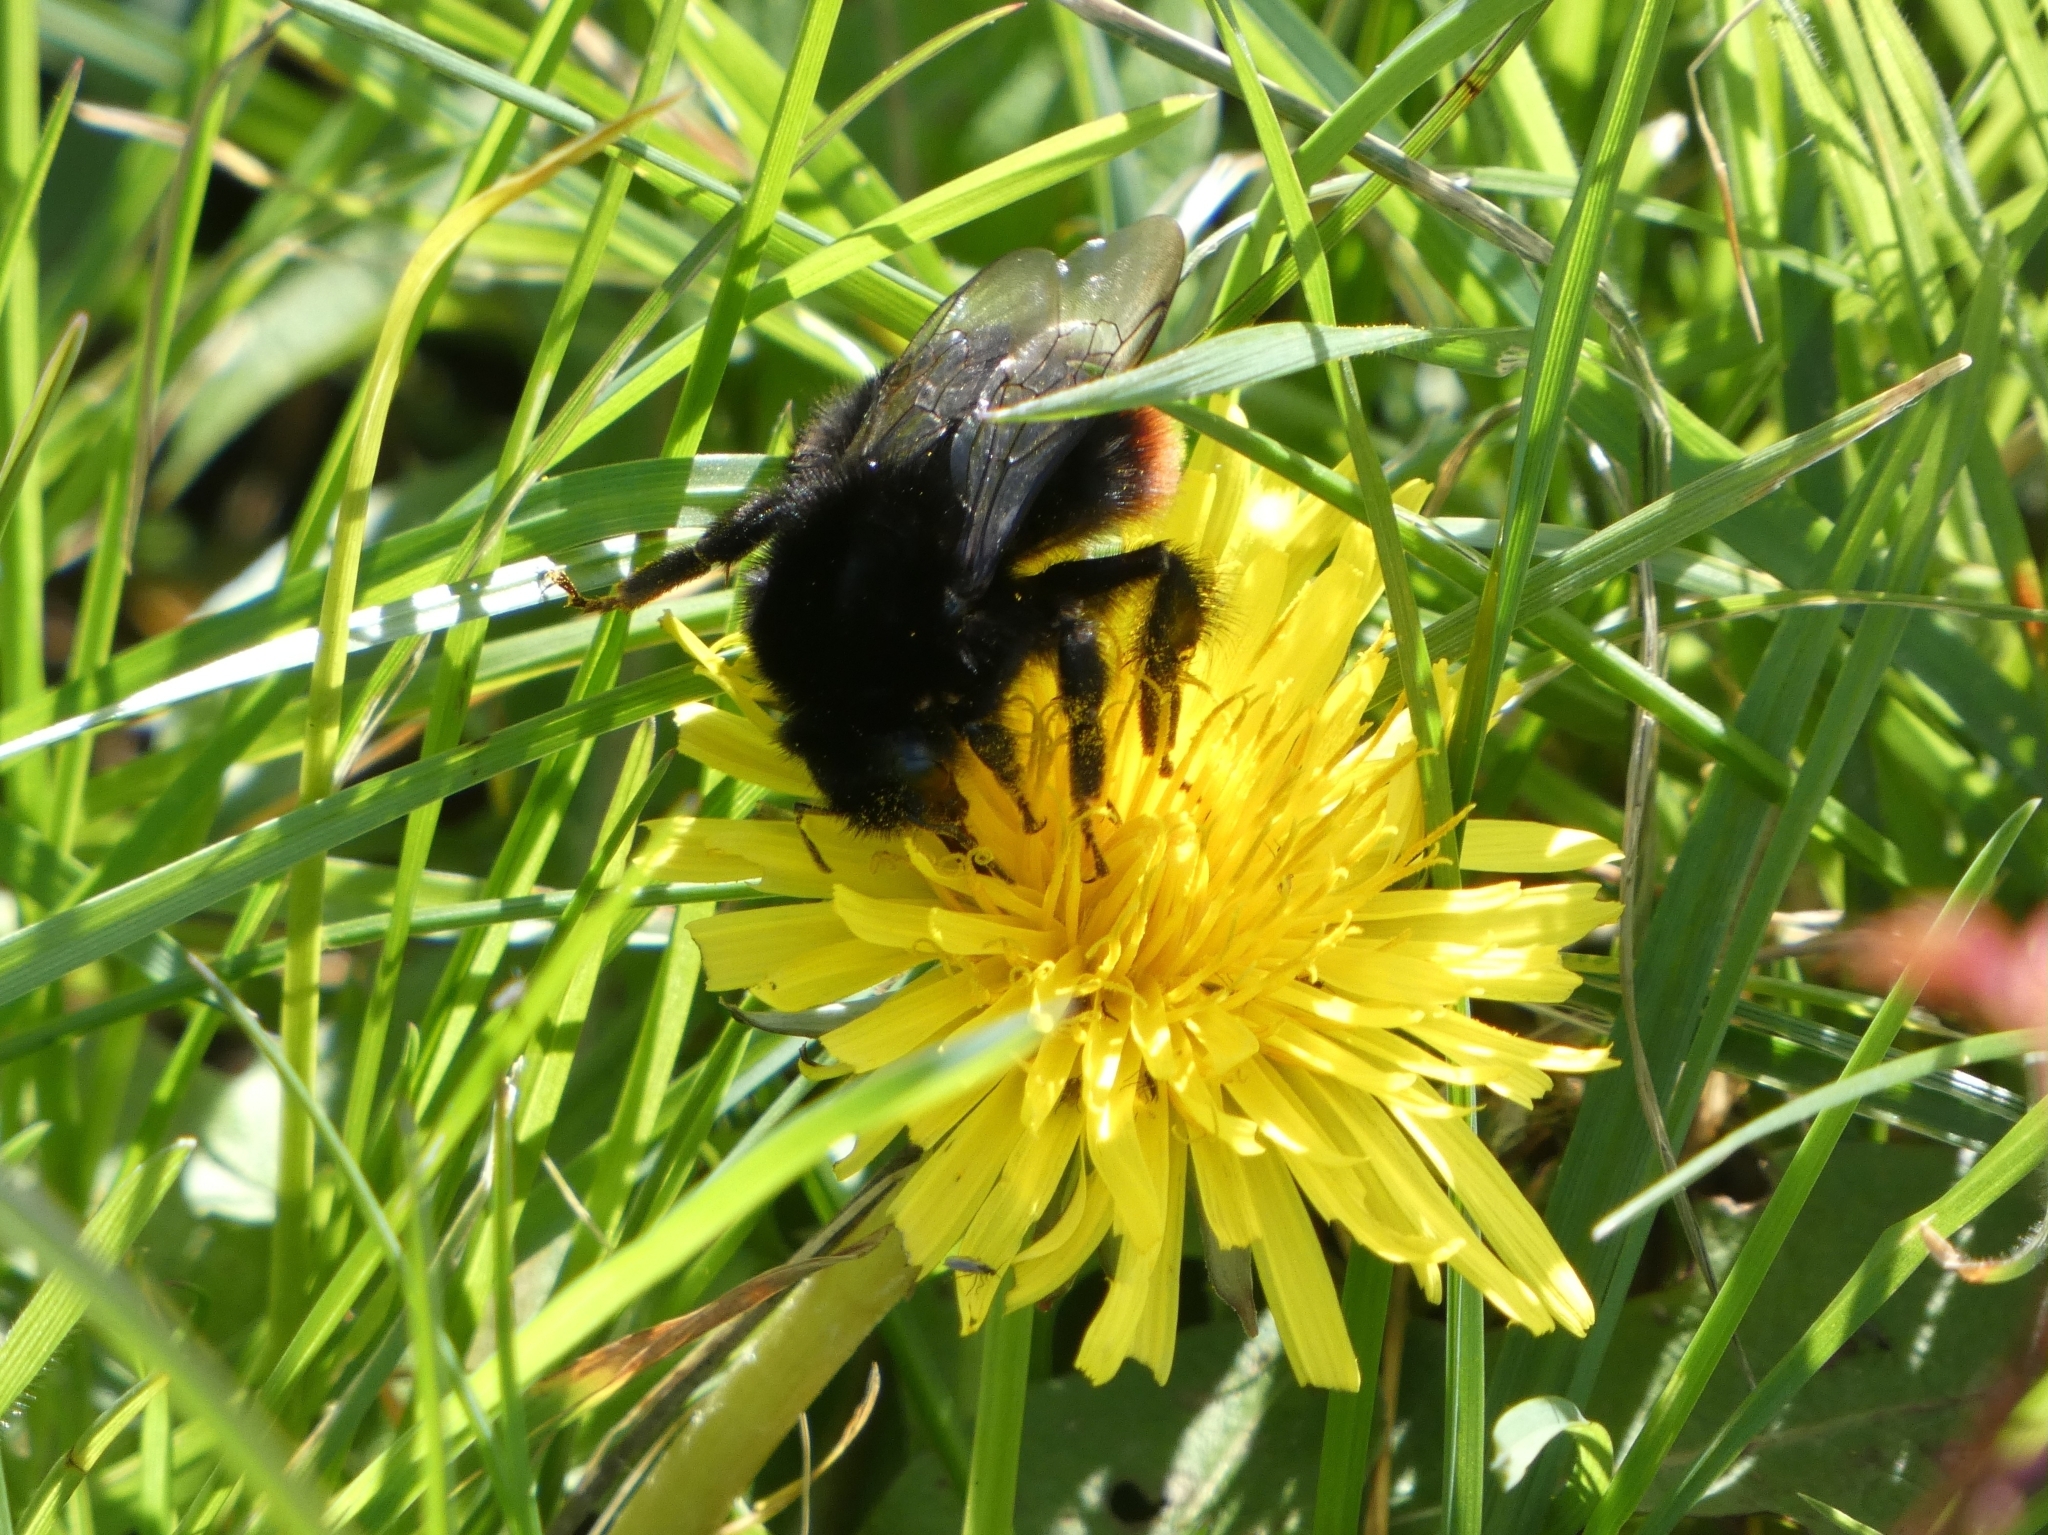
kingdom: Animalia
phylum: Arthropoda
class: Insecta
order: Hymenoptera
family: Apidae
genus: Bombus
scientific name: Bombus lapidarius
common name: Large red-tailed humble-bee
